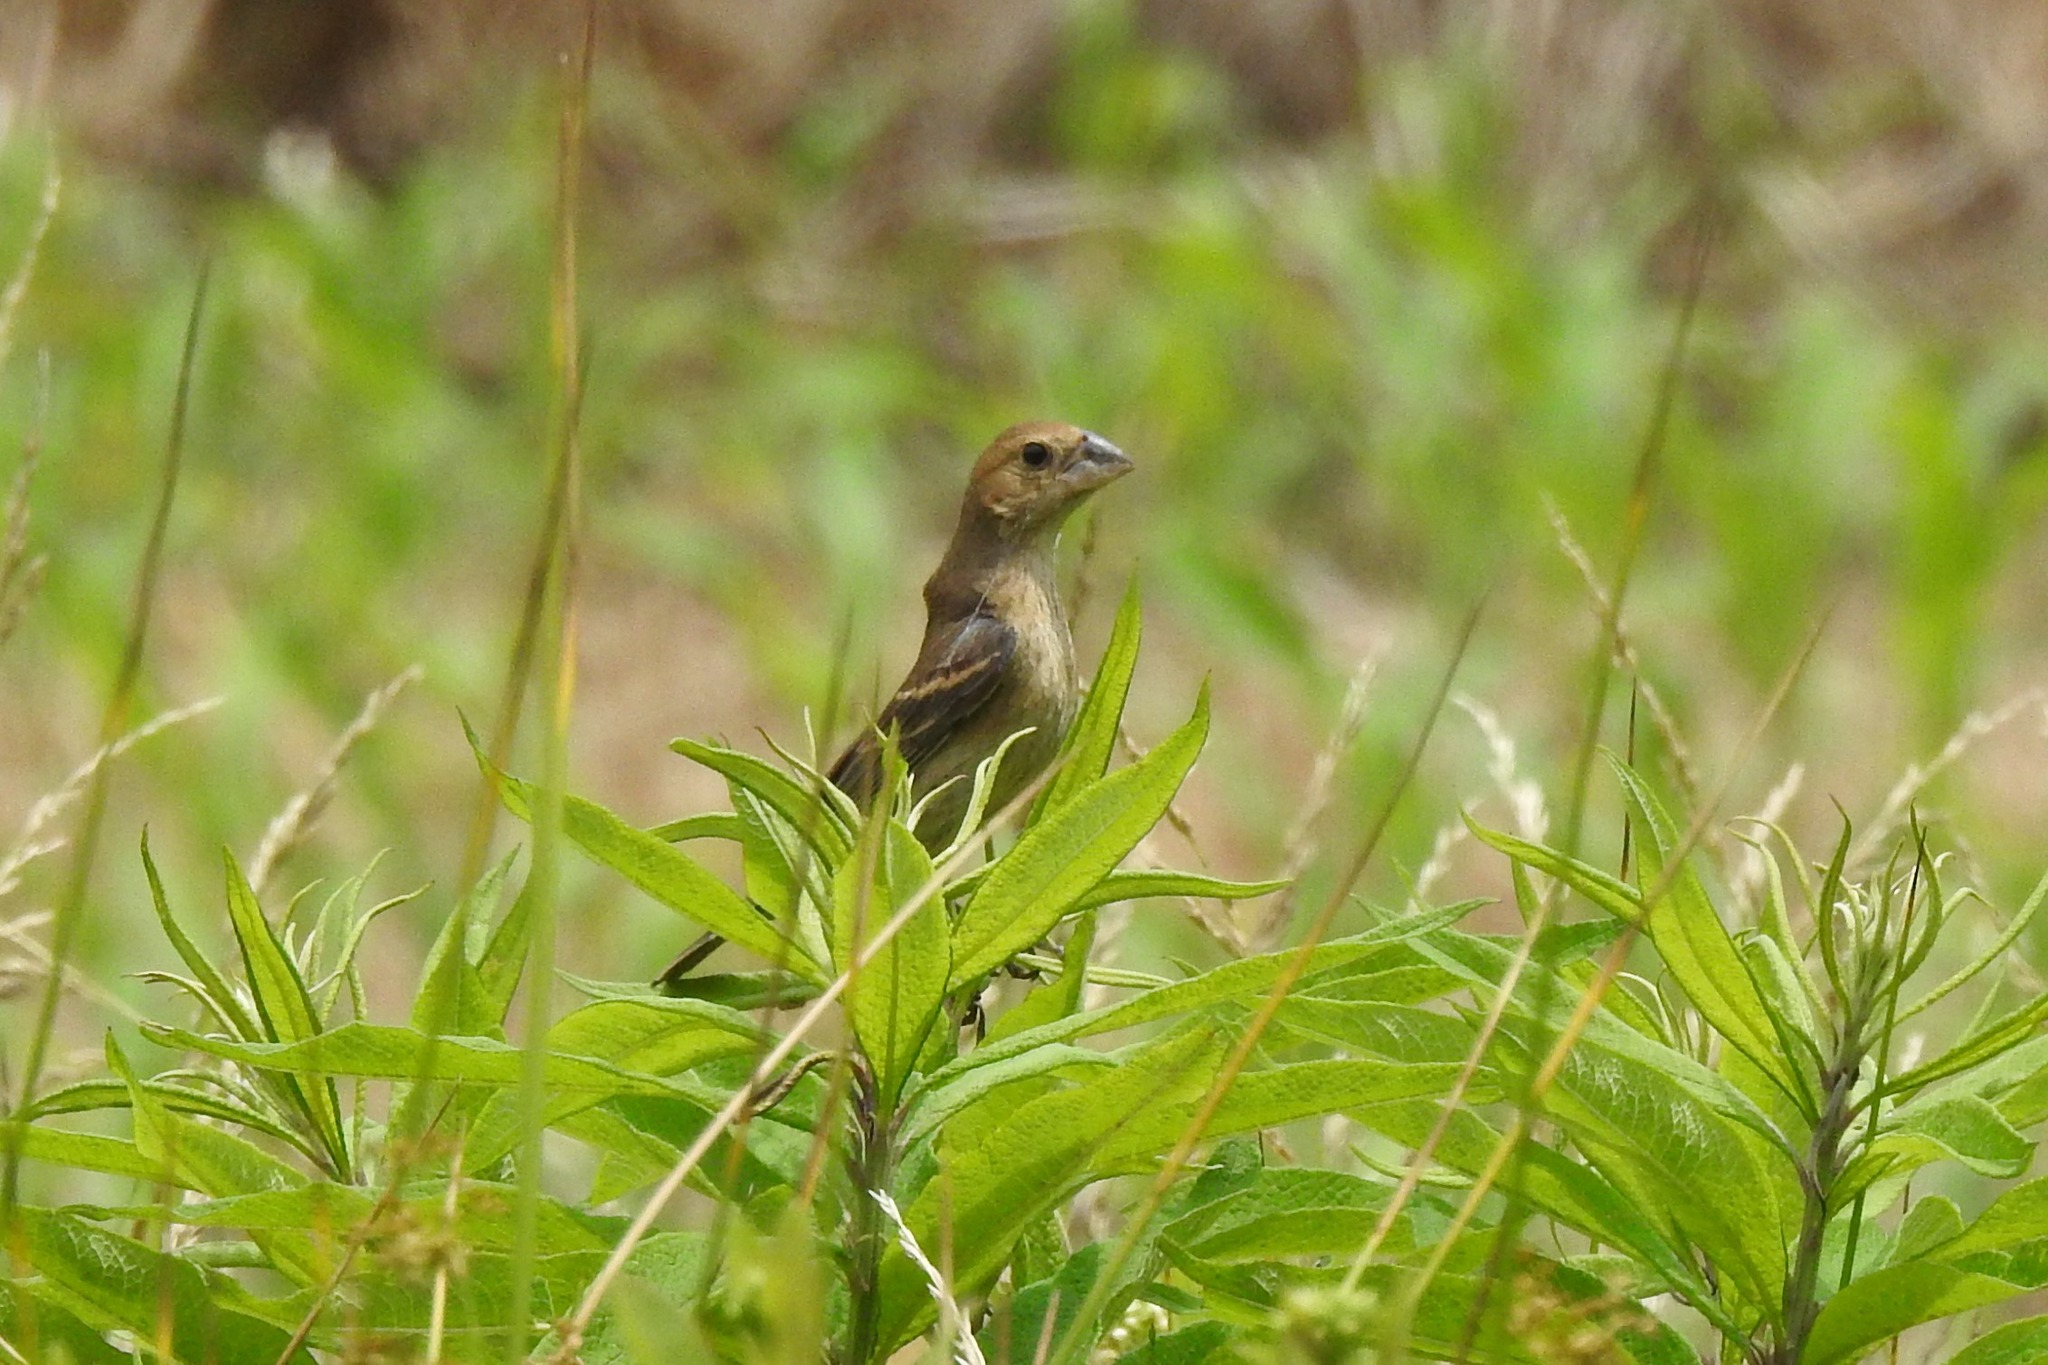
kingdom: Animalia
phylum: Chordata
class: Aves
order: Passeriformes
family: Cardinalidae
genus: Passerina
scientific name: Passerina caerulea
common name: Blue grosbeak
